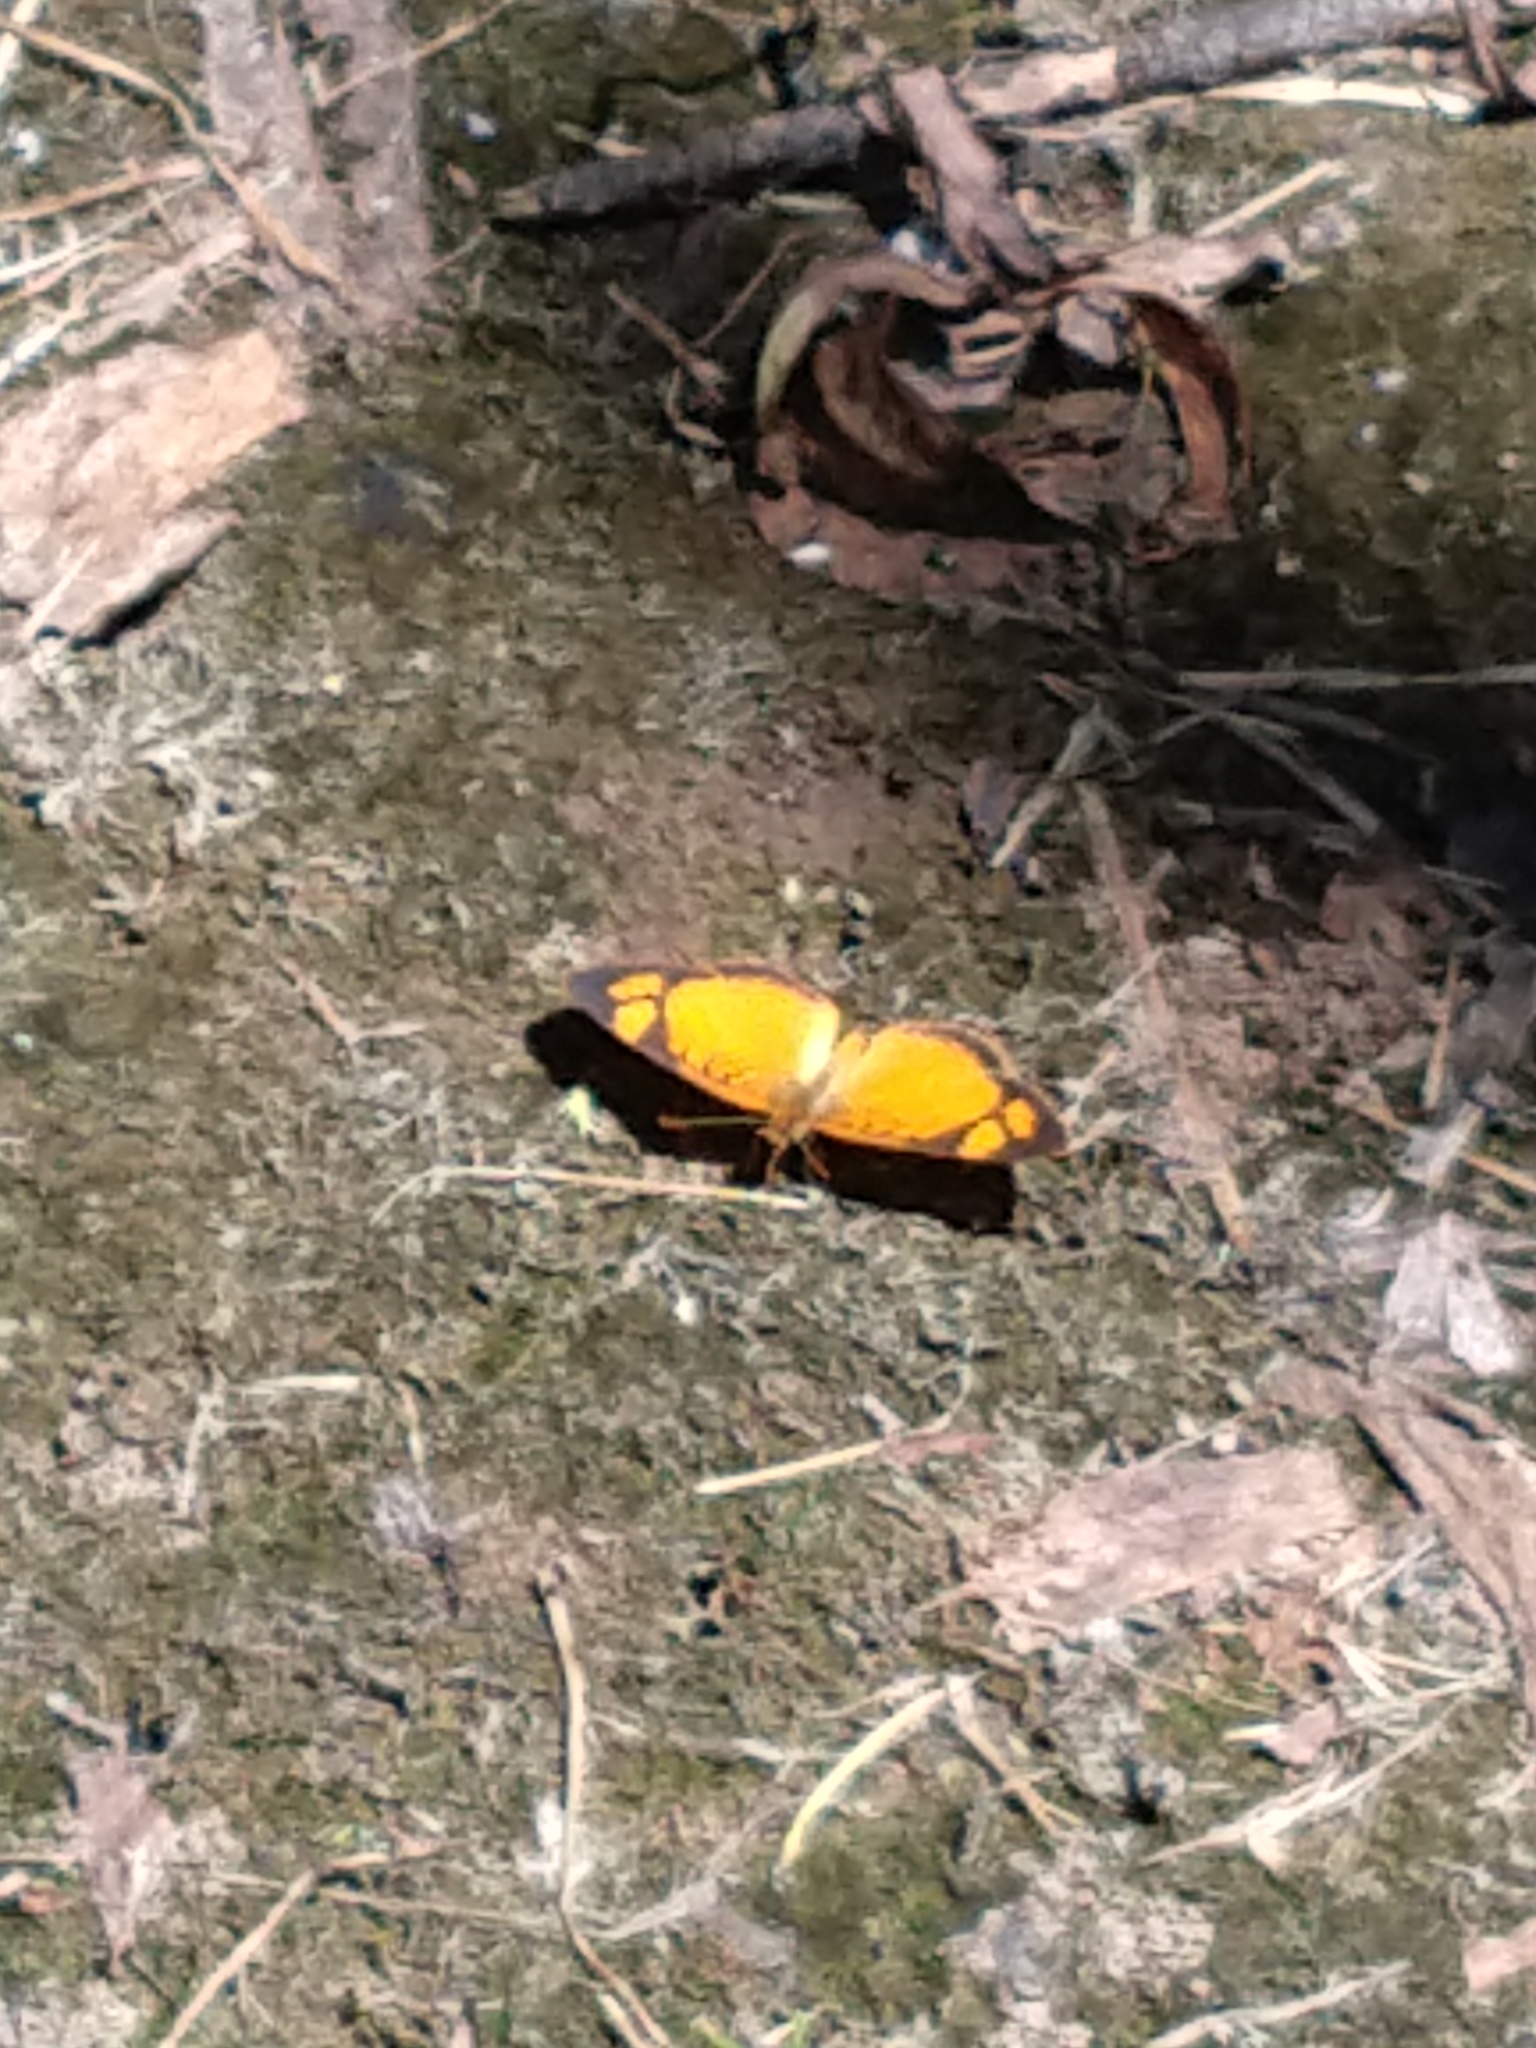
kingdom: Animalia
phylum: Arthropoda
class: Insecta
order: Lepidoptera
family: Nymphalidae
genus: Tegosa
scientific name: Tegosa claudina
